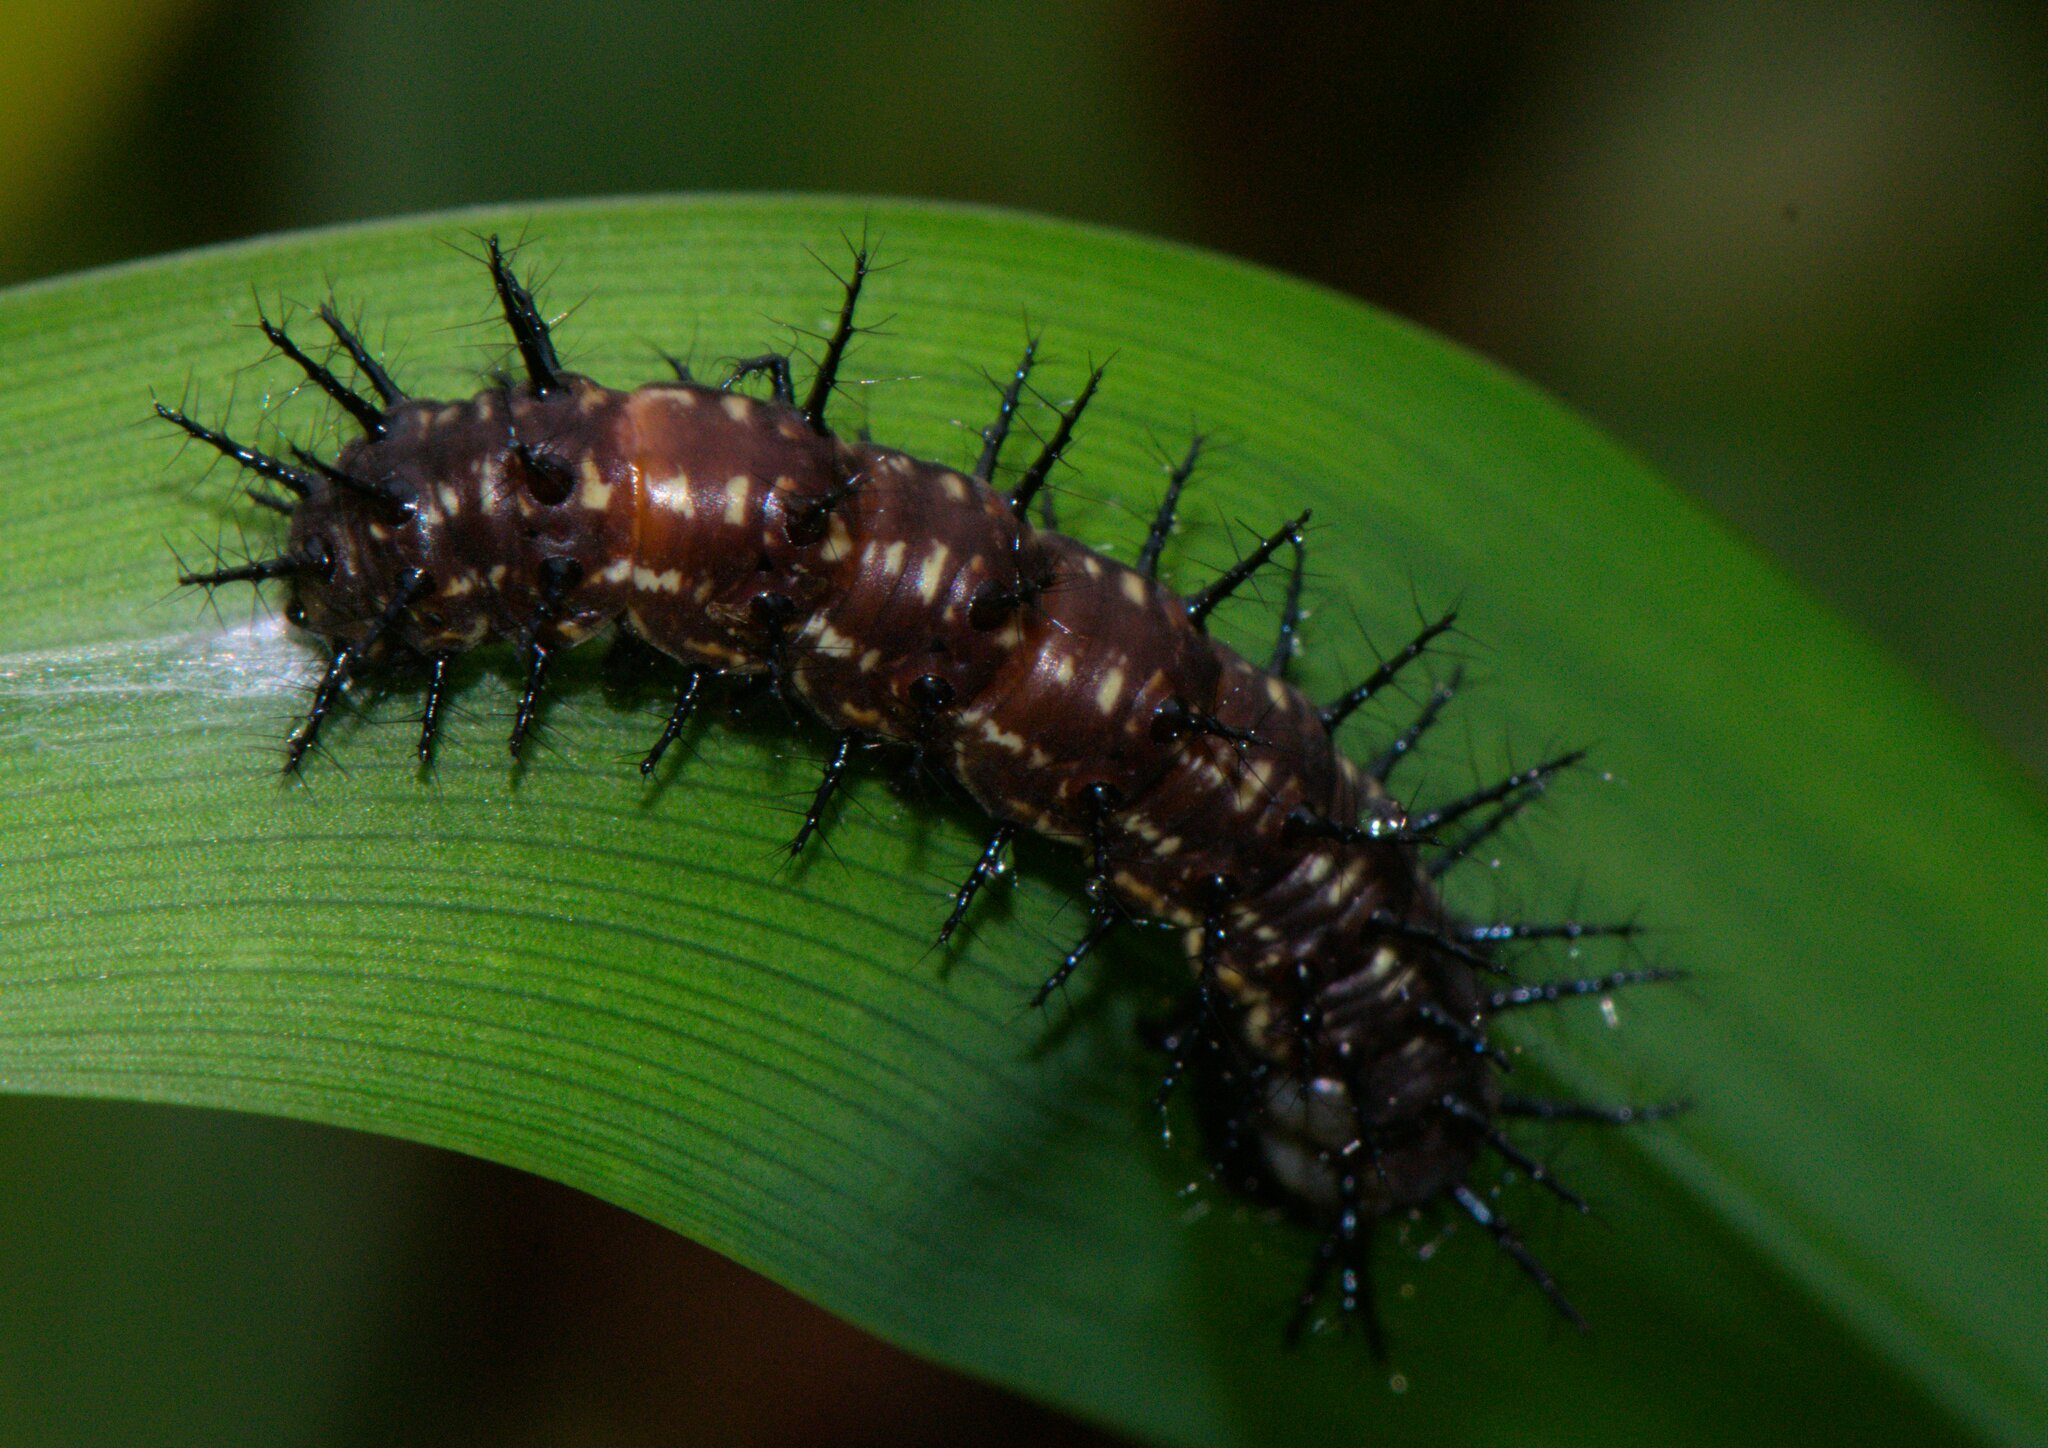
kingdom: Animalia
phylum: Arthropoda
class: Insecta
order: Lepidoptera
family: Nymphalidae
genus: Acraea
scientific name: Acraea Telchinia issoria
